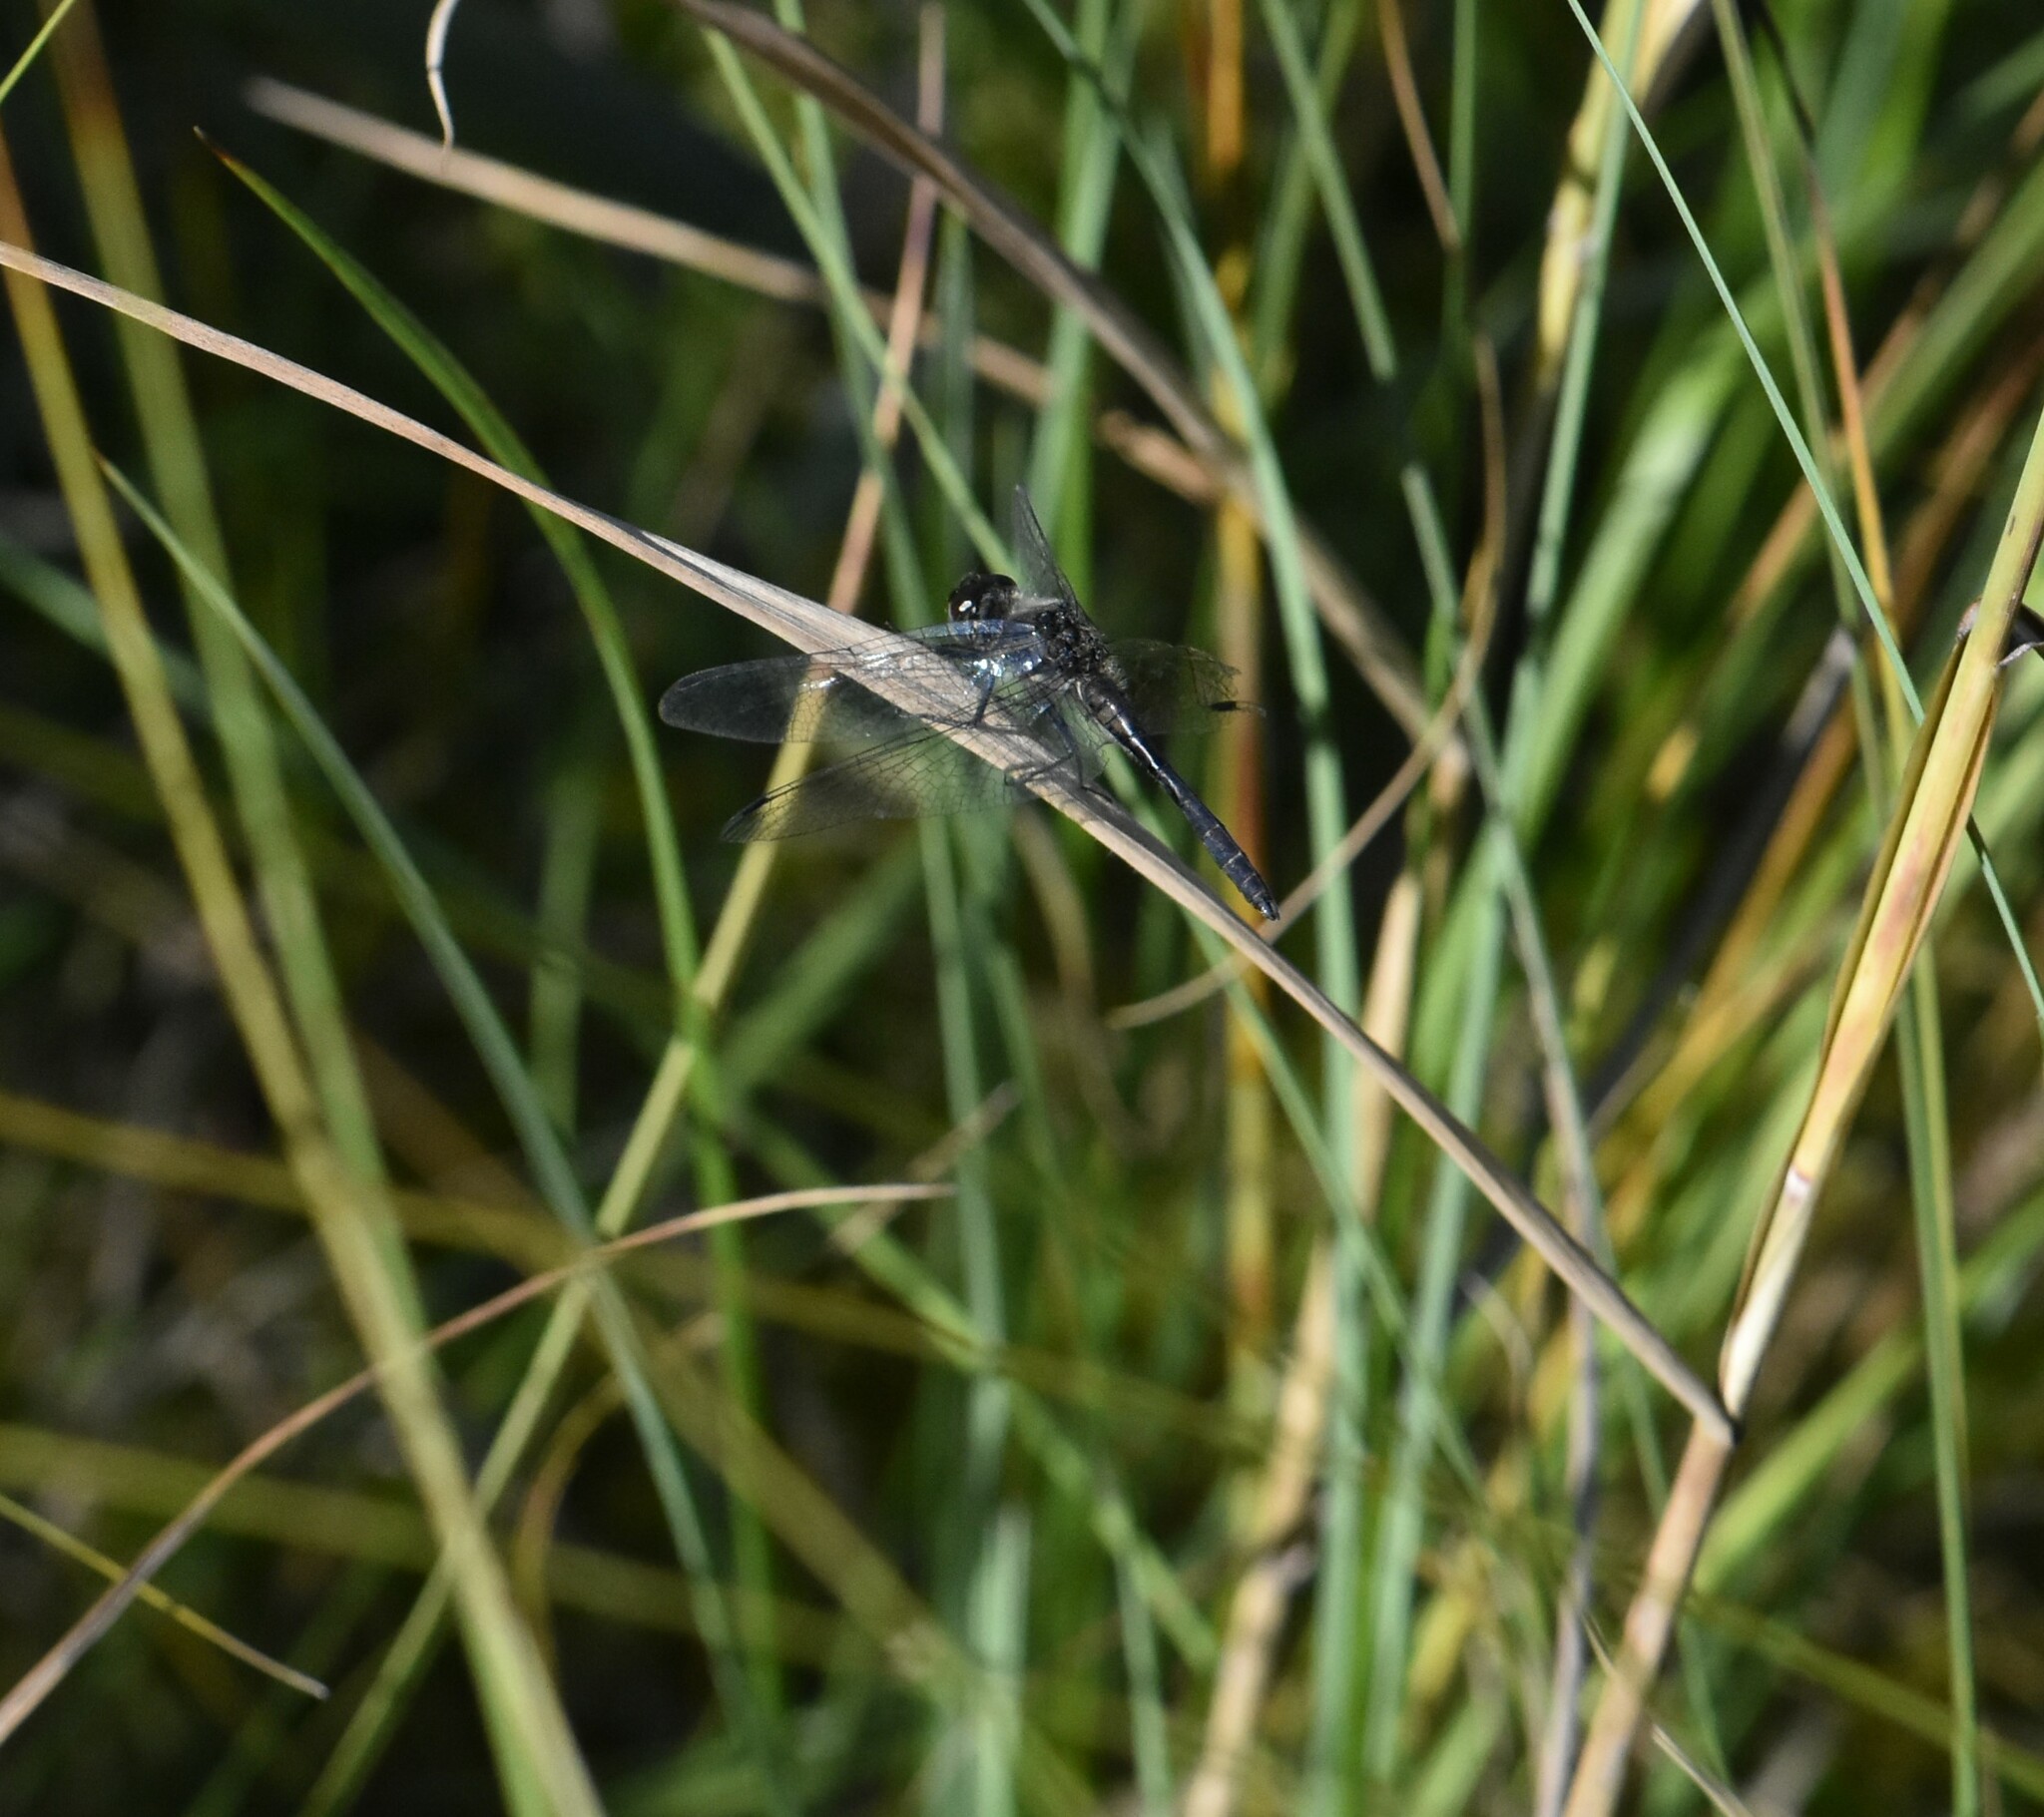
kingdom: Animalia
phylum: Arthropoda
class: Insecta
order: Odonata
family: Libellulidae
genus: Sympetrum
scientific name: Sympetrum danae
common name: Black darter
